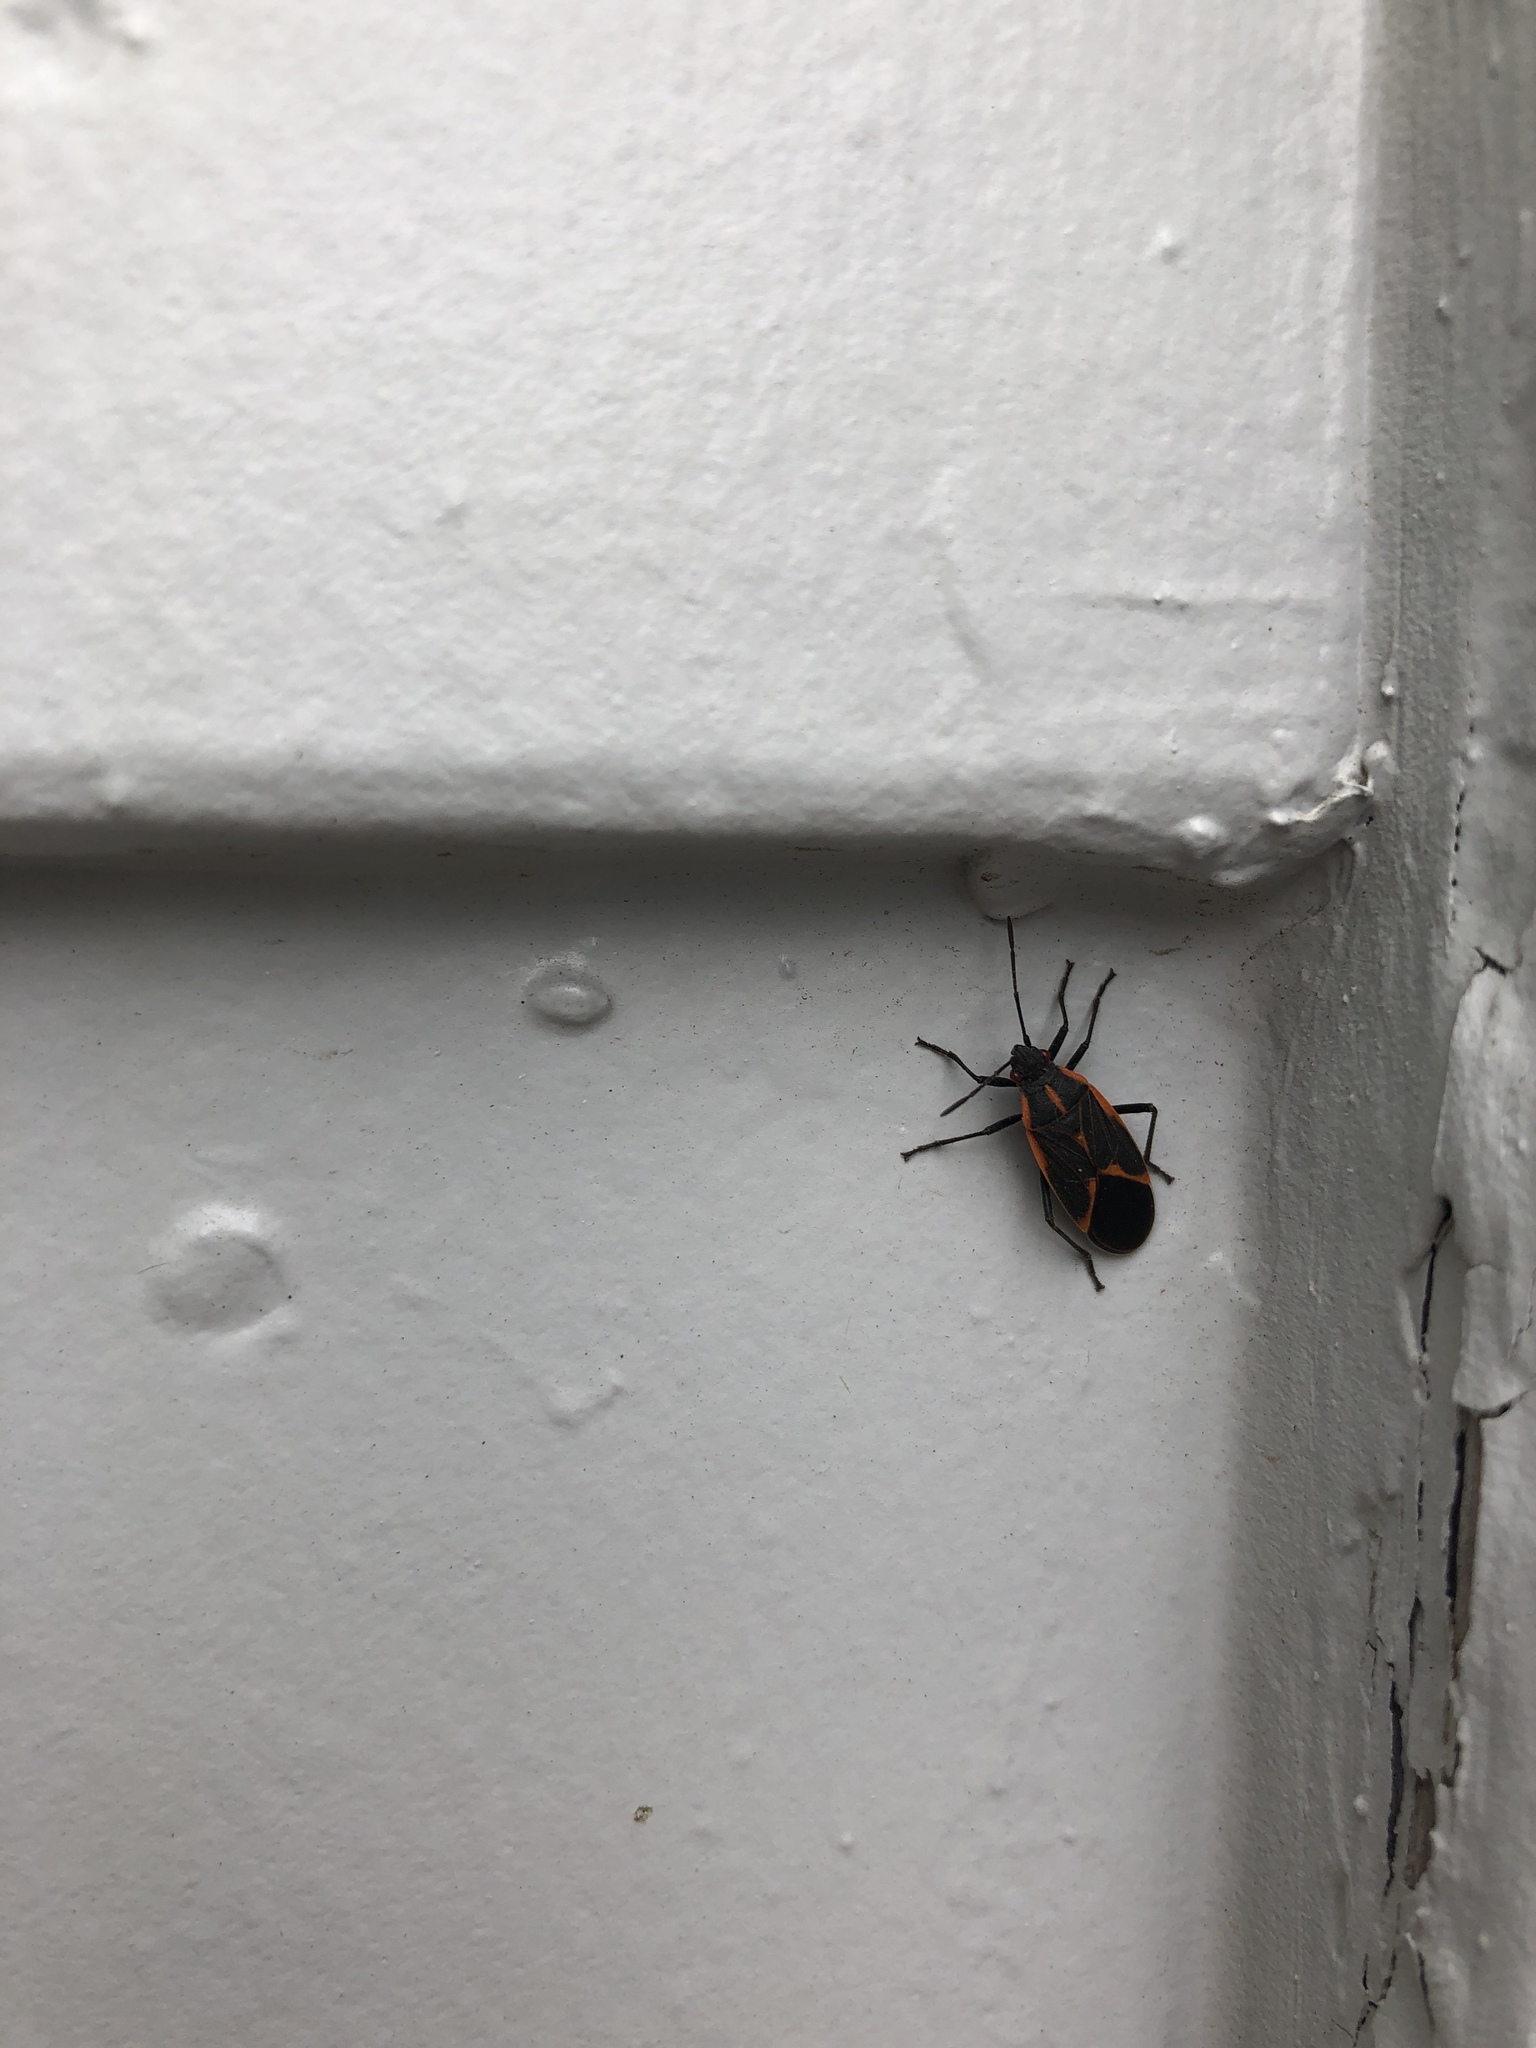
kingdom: Animalia
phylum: Arthropoda
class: Insecta
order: Hemiptera
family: Rhopalidae
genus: Boisea
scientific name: Boisea trivittata
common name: Boxelder bug
